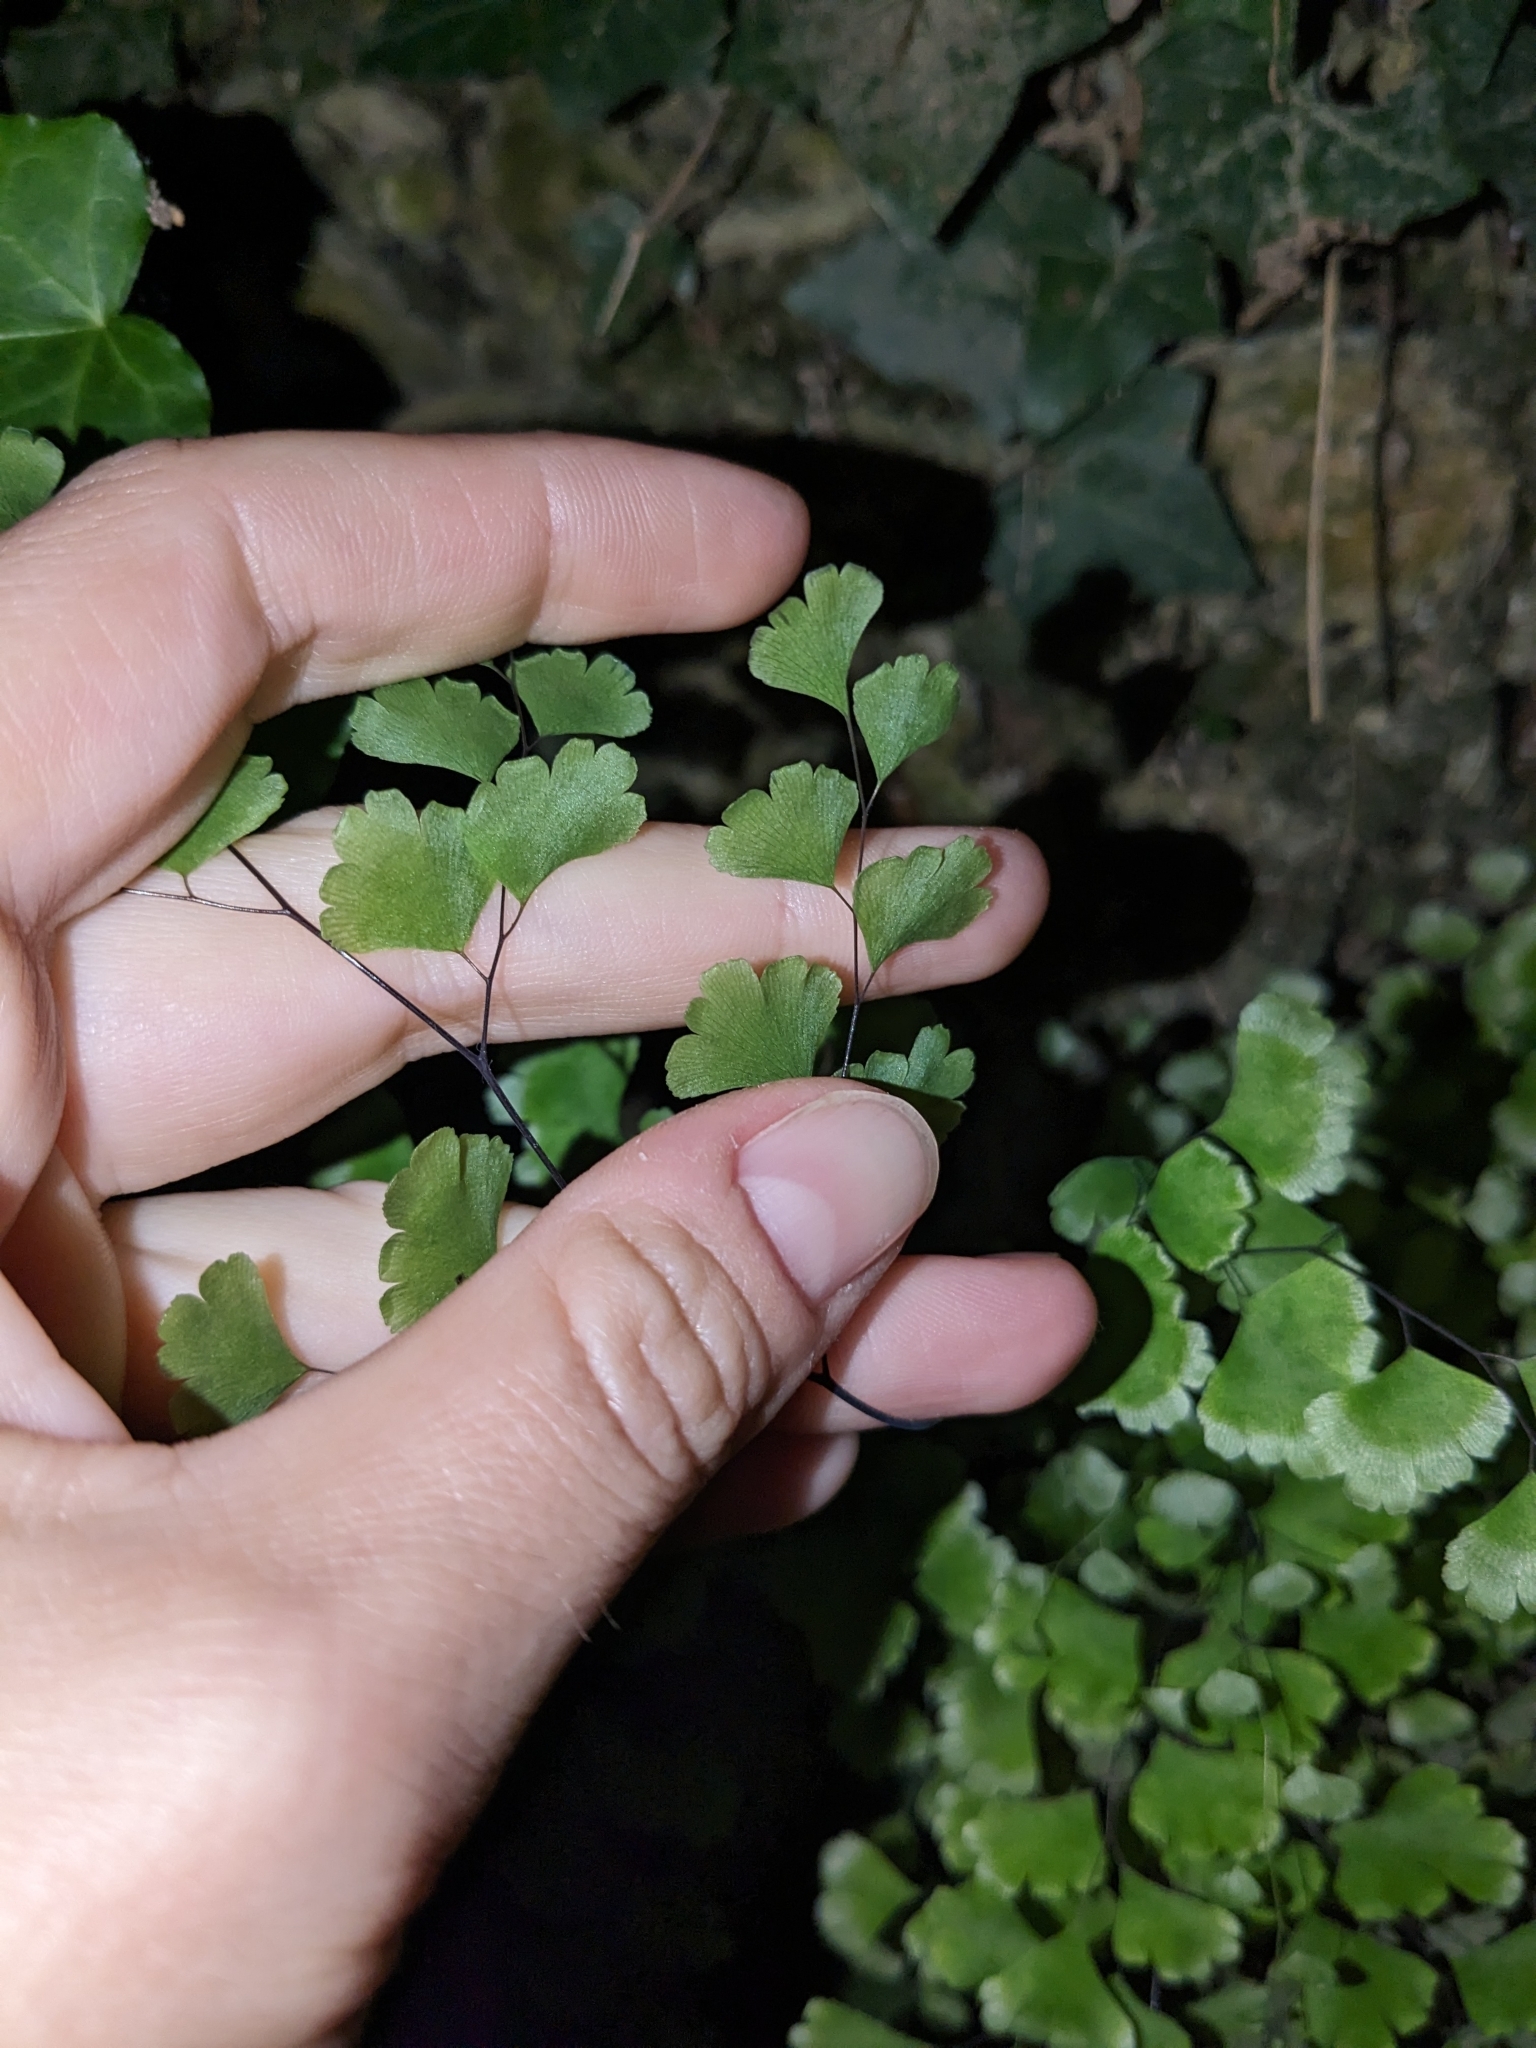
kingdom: Plantae
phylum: Tracheophyta
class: Polypodiopsida
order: Polypodiales
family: Pteridaceae
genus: Adiantum
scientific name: Adiantum capillus-veneris
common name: Maidenhair fern
